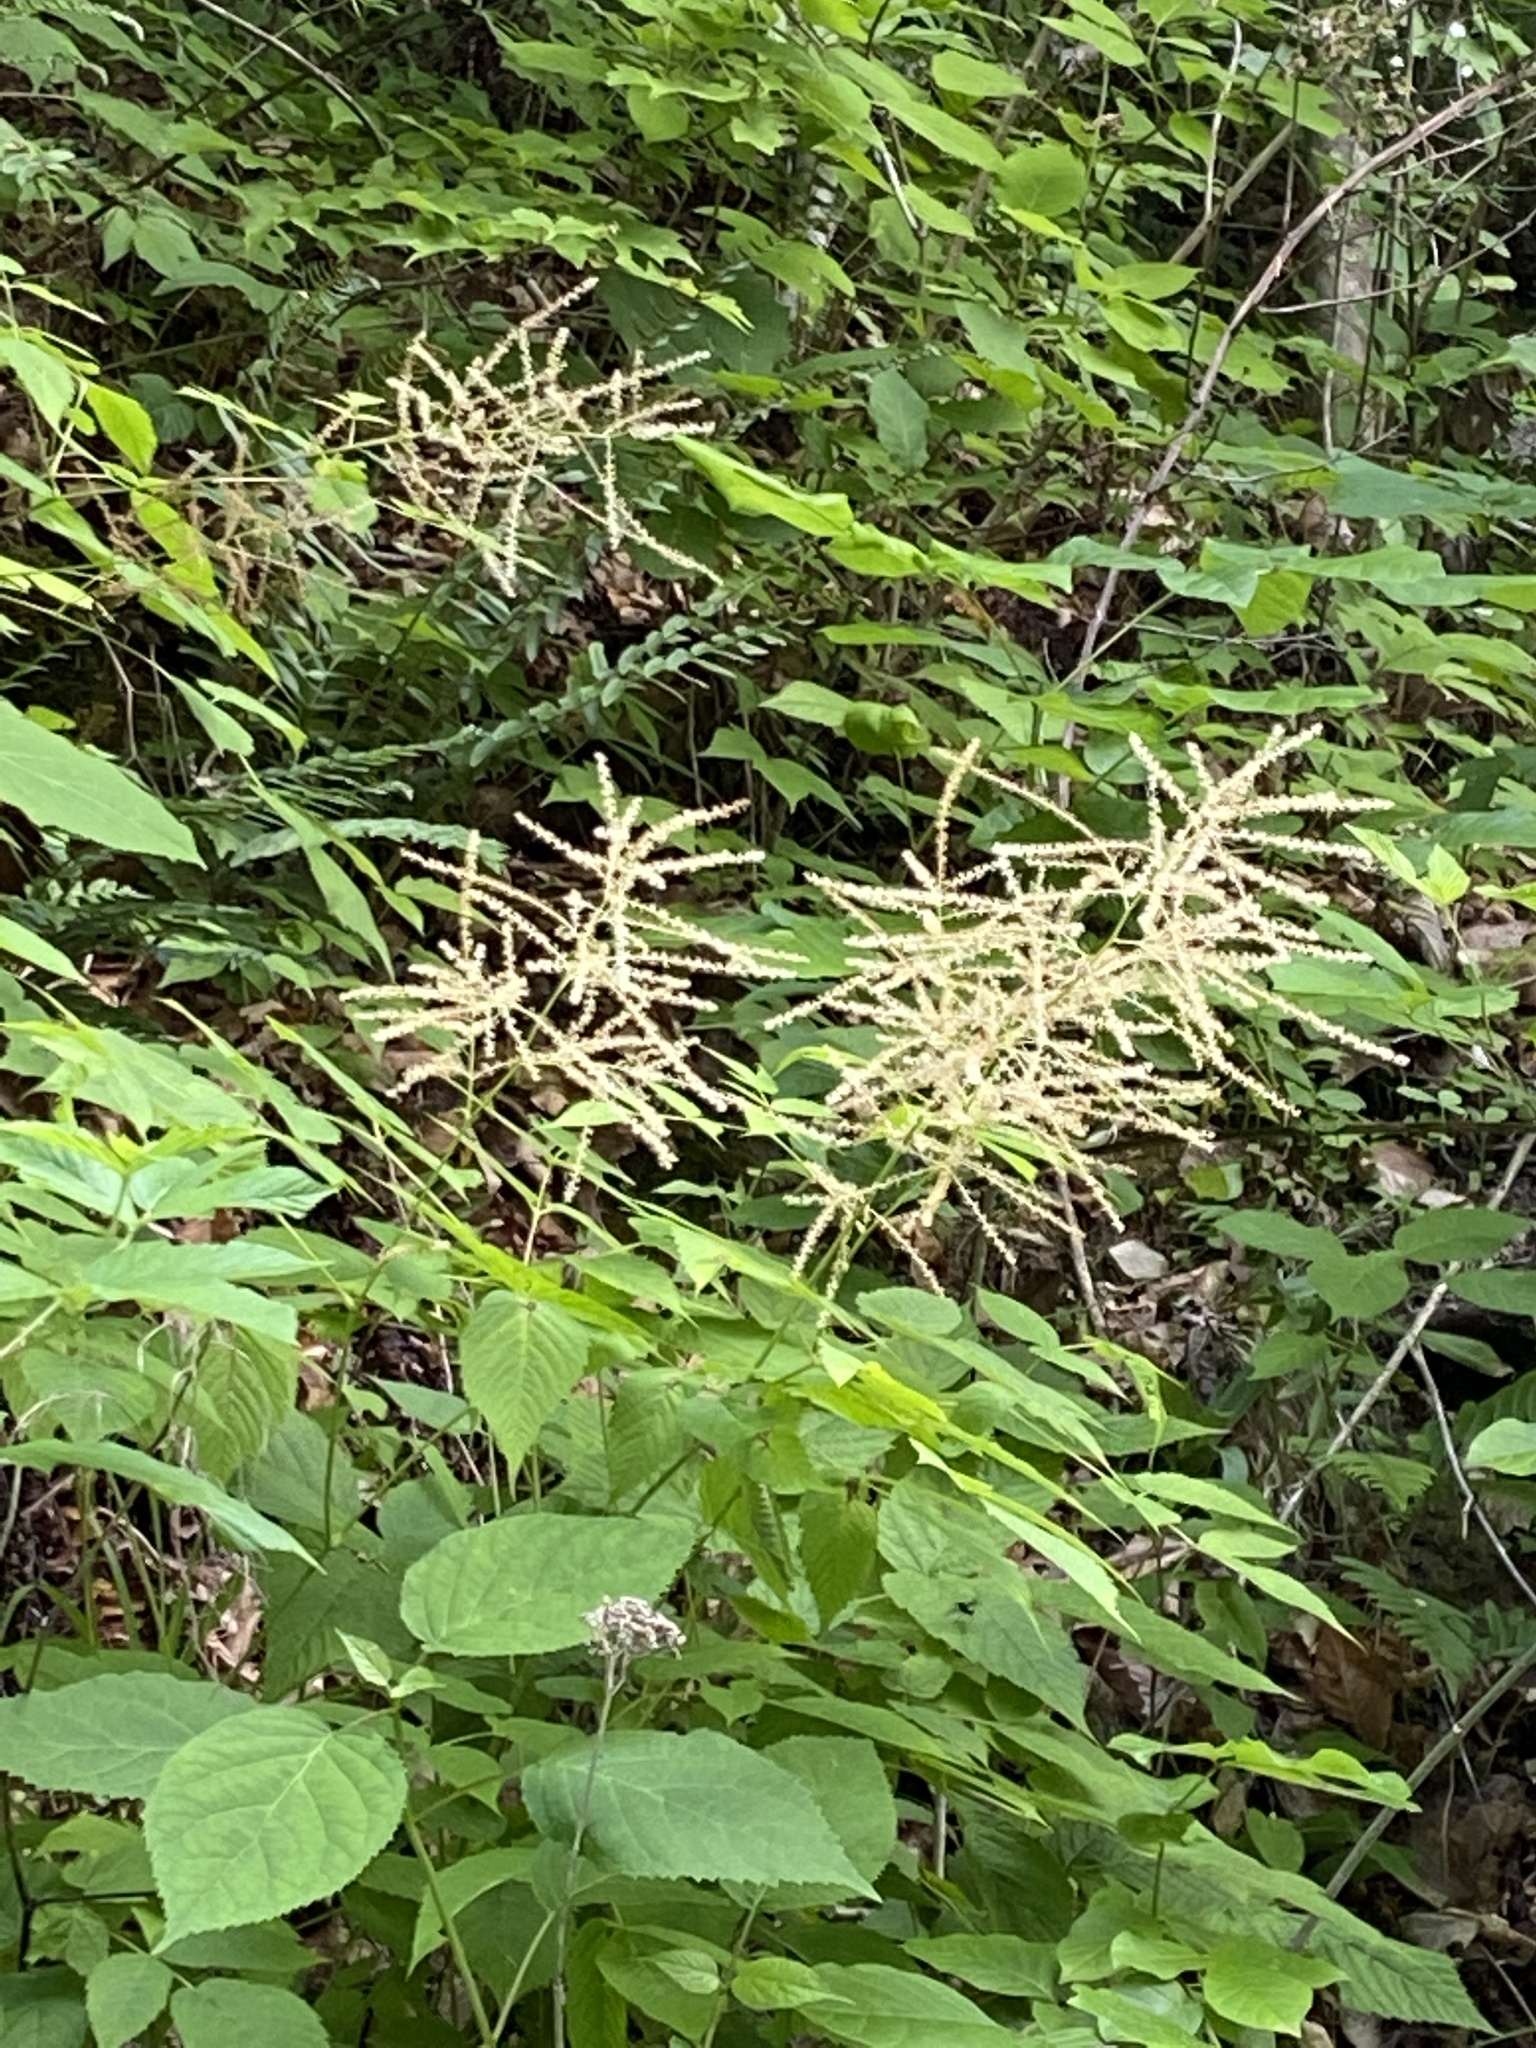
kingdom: Plantae
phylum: Tracheophyta
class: Magnoliopsida
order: Rosales
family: Rosaceae
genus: Aruncus
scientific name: Aruncus dioicus
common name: Buck's-beard
